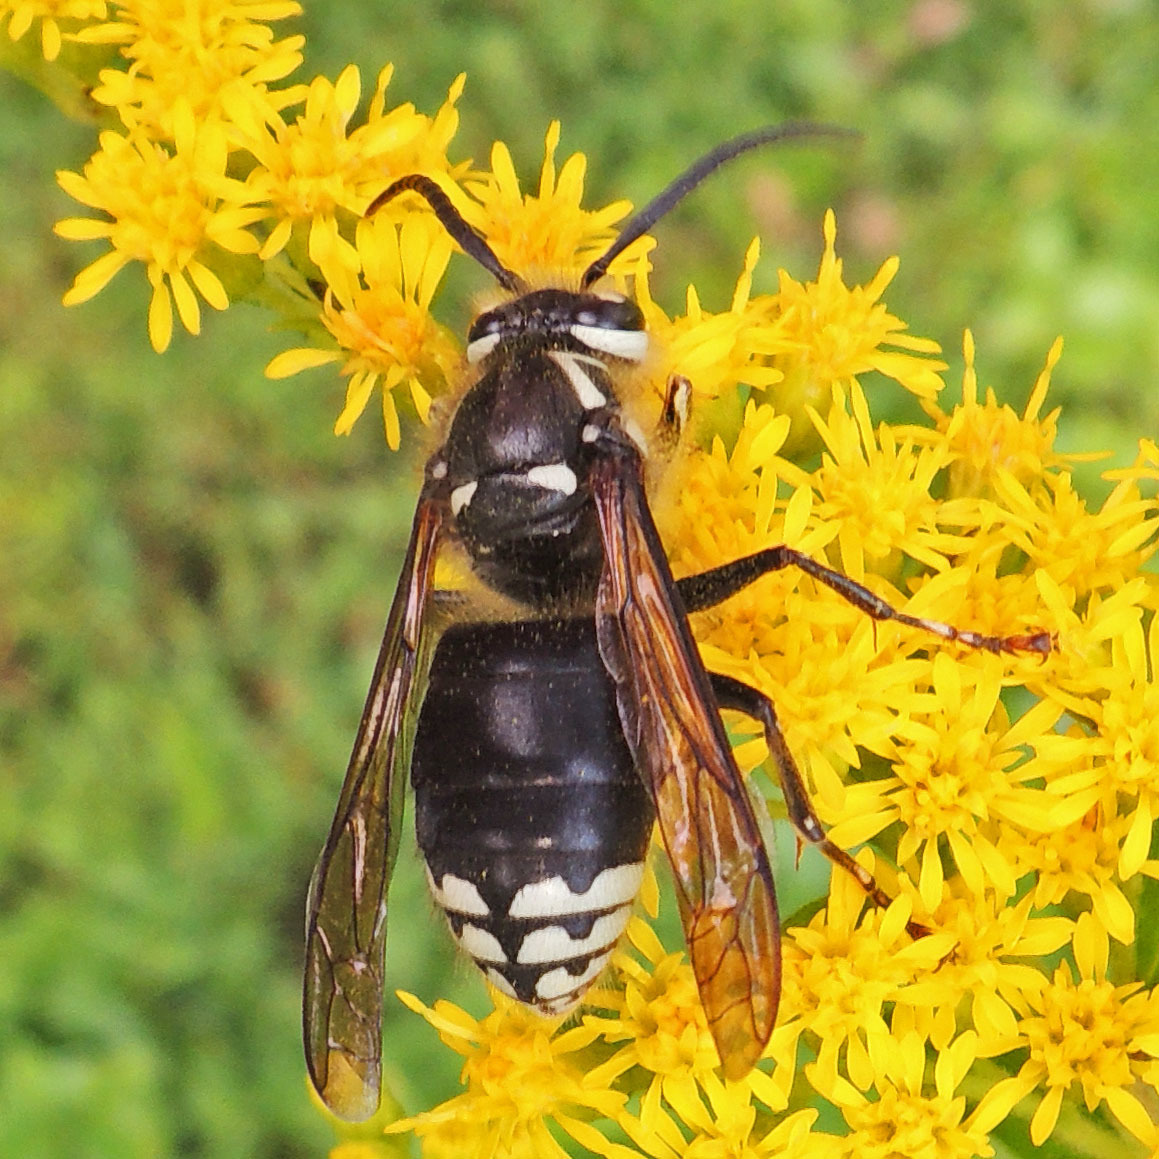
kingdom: Animalia
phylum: Arthropoda
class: Insecta
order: Hymenoptera
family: Vespidae
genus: Dolichovespula
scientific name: Dolichovespula maculata
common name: Bald-faced hornet
